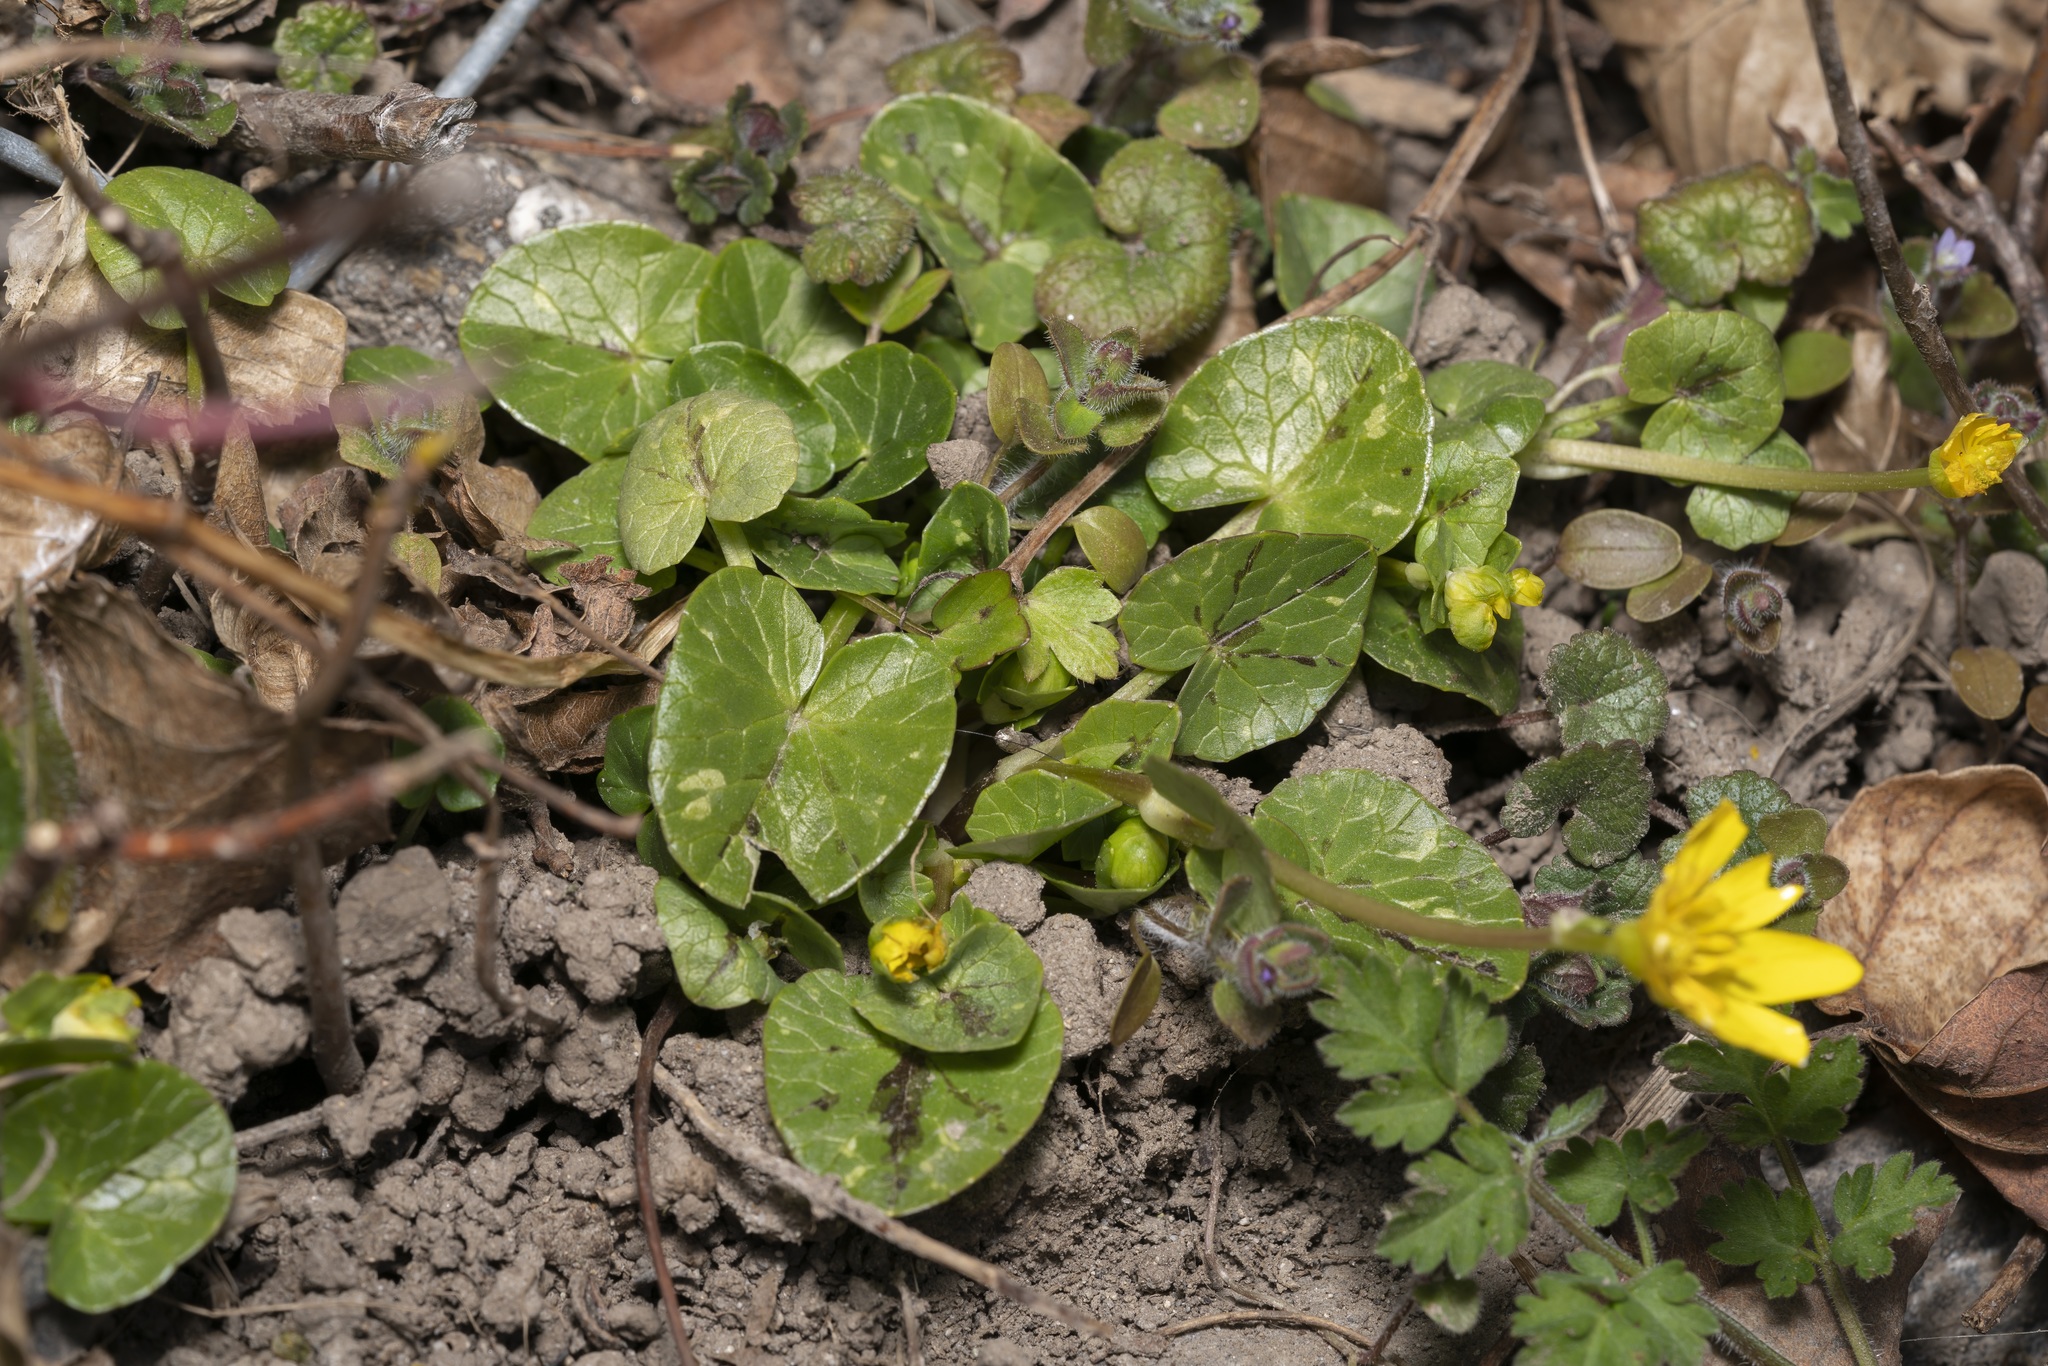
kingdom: Plantae
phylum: Tracheophyta
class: Magnoliopsida
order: Ranunculales
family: Ranunculaceae
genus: Ficaria
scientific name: Ficaria verna
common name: Lesser celandine
